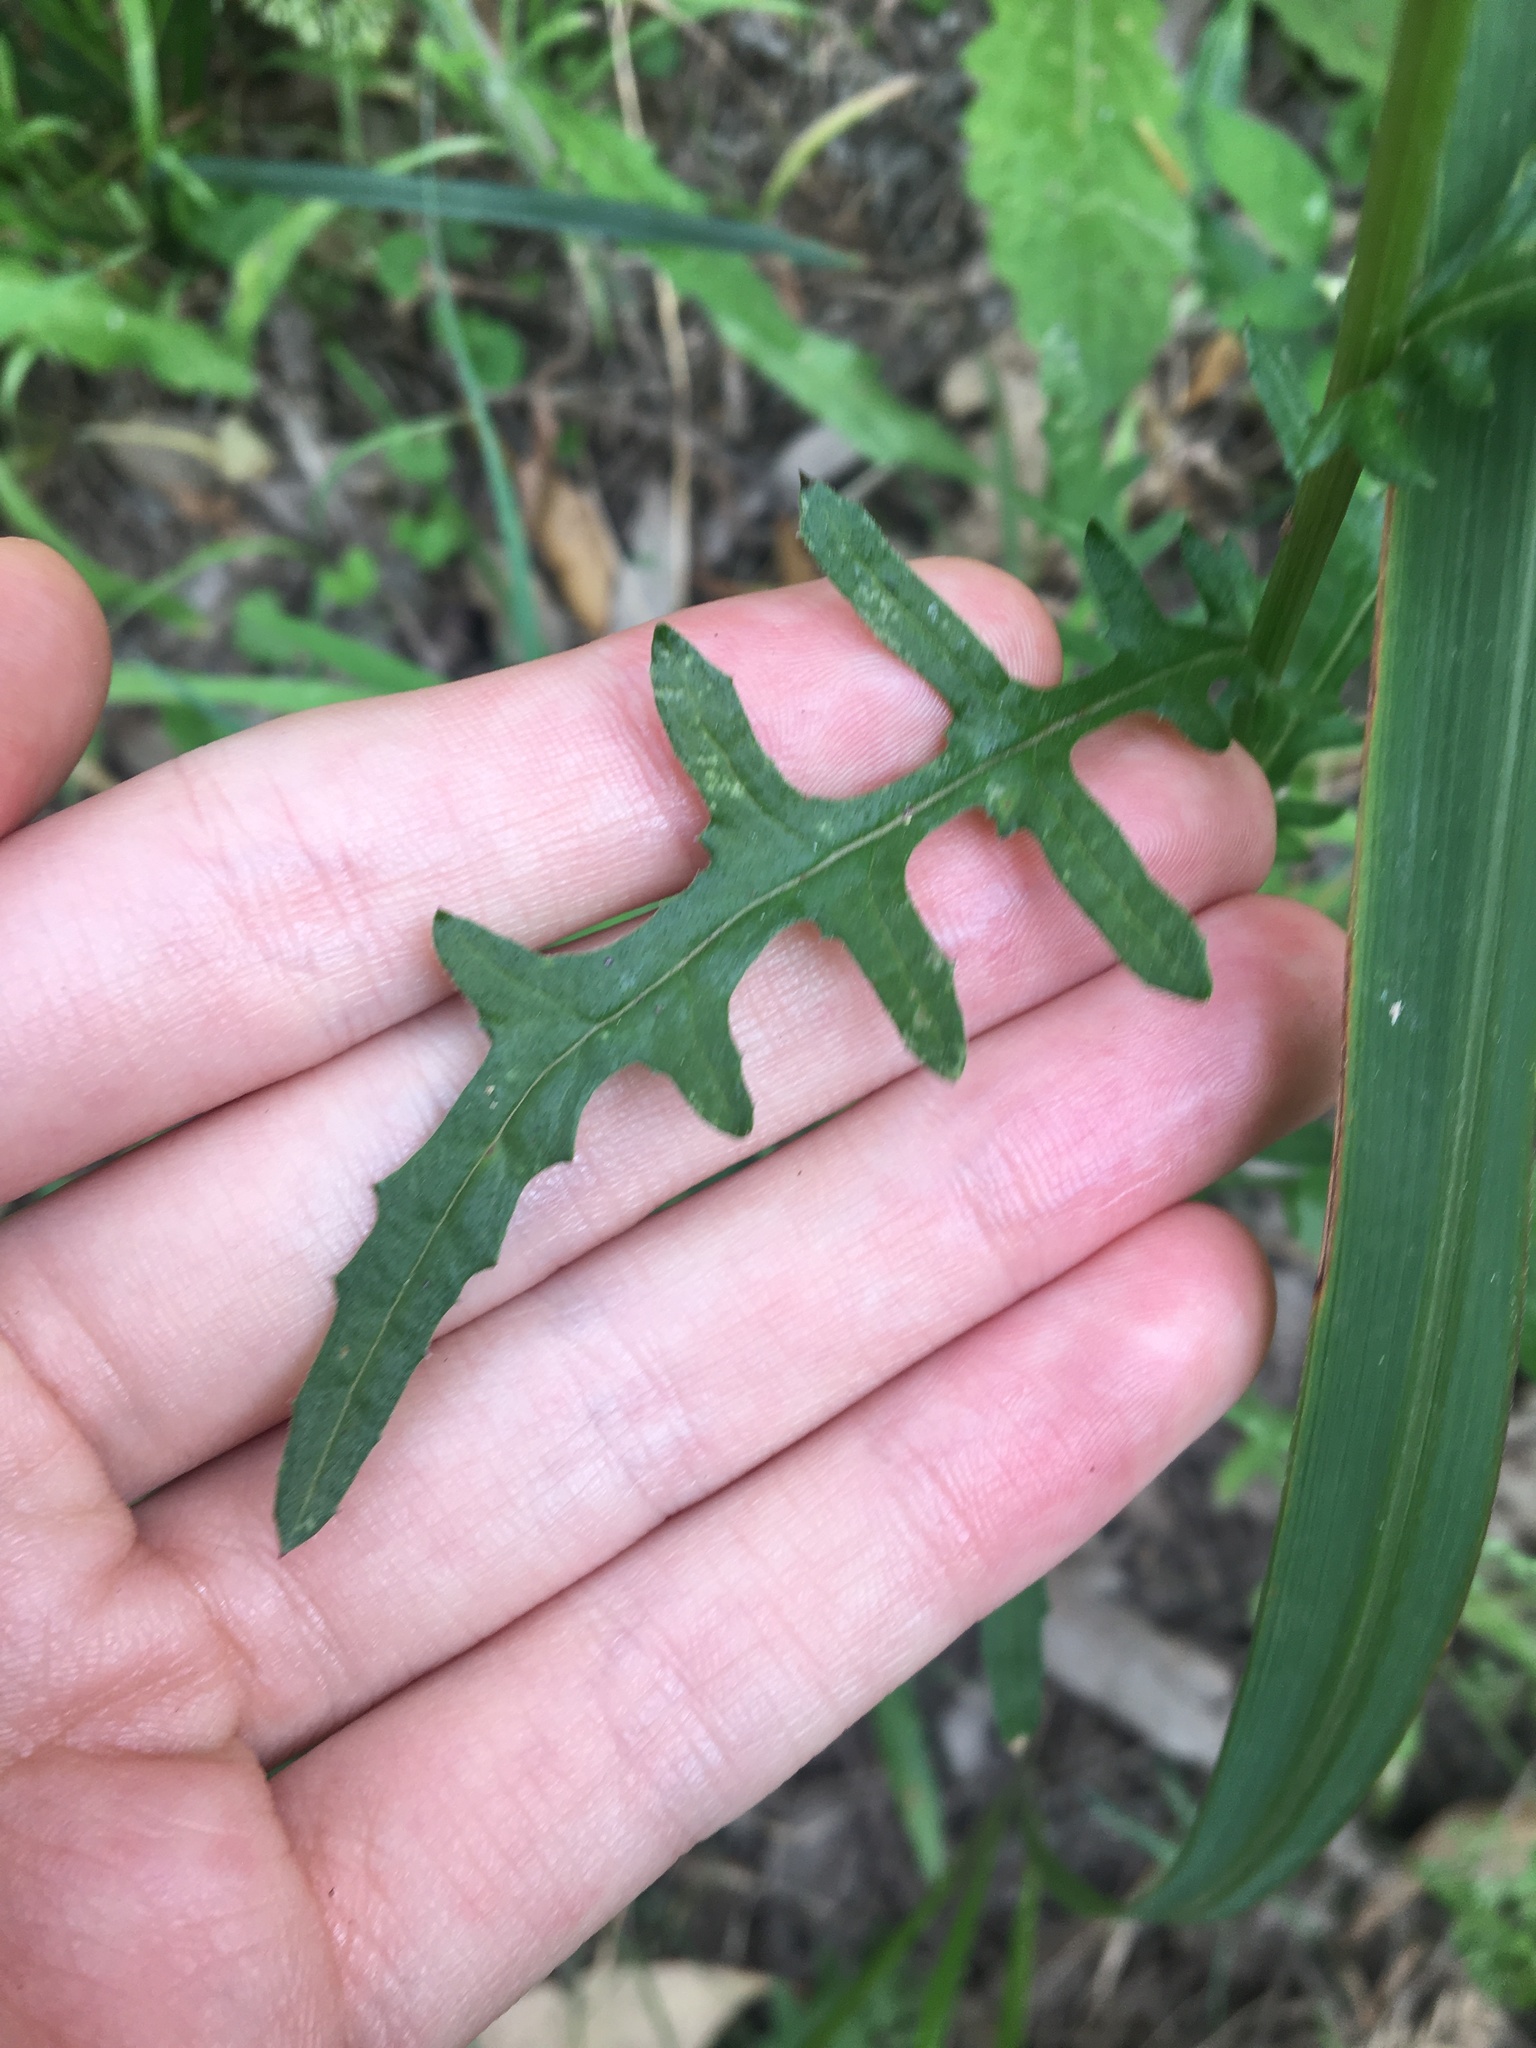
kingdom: Plantae
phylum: Tracheophyta
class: Magnoliopsida
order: Asterales
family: Asteraceae
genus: Senecio
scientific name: Senecio hispidulus
